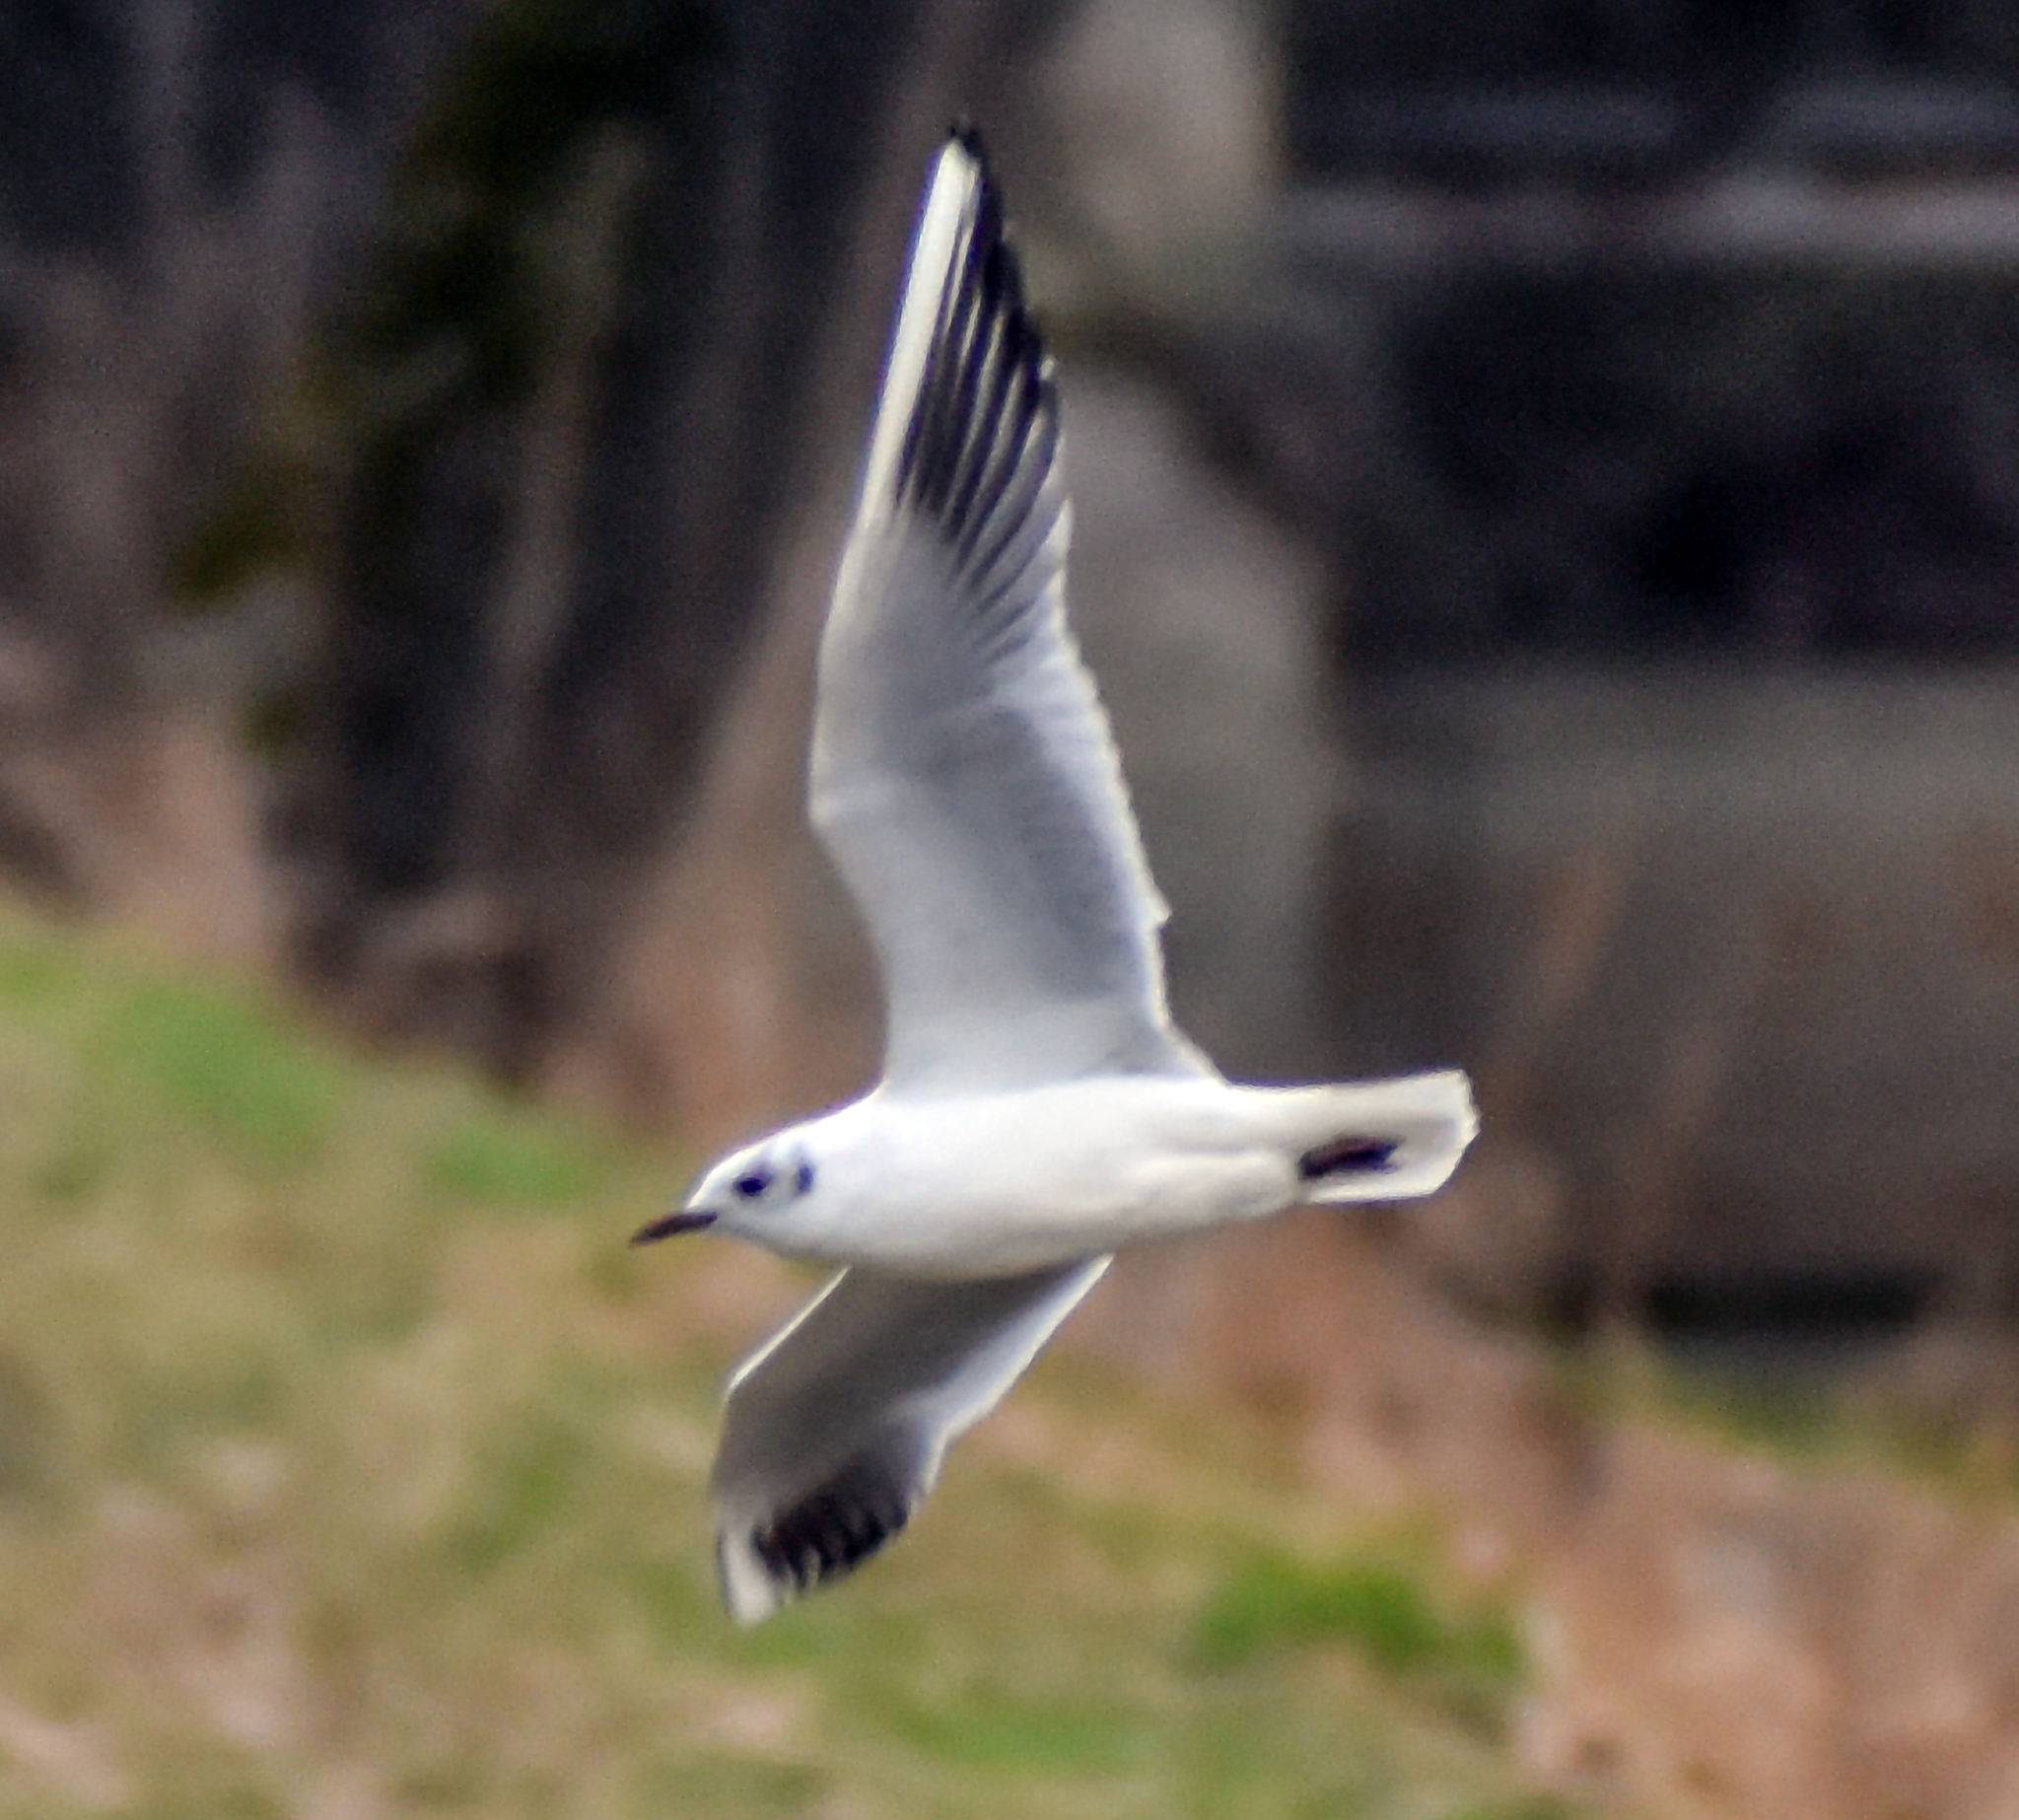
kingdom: Animalia
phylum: Chordata
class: Aves
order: Charadriiformes
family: Laridae
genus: Chroicocephalus
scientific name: Chroicocephalus ridibundus
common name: Black-headed gull
